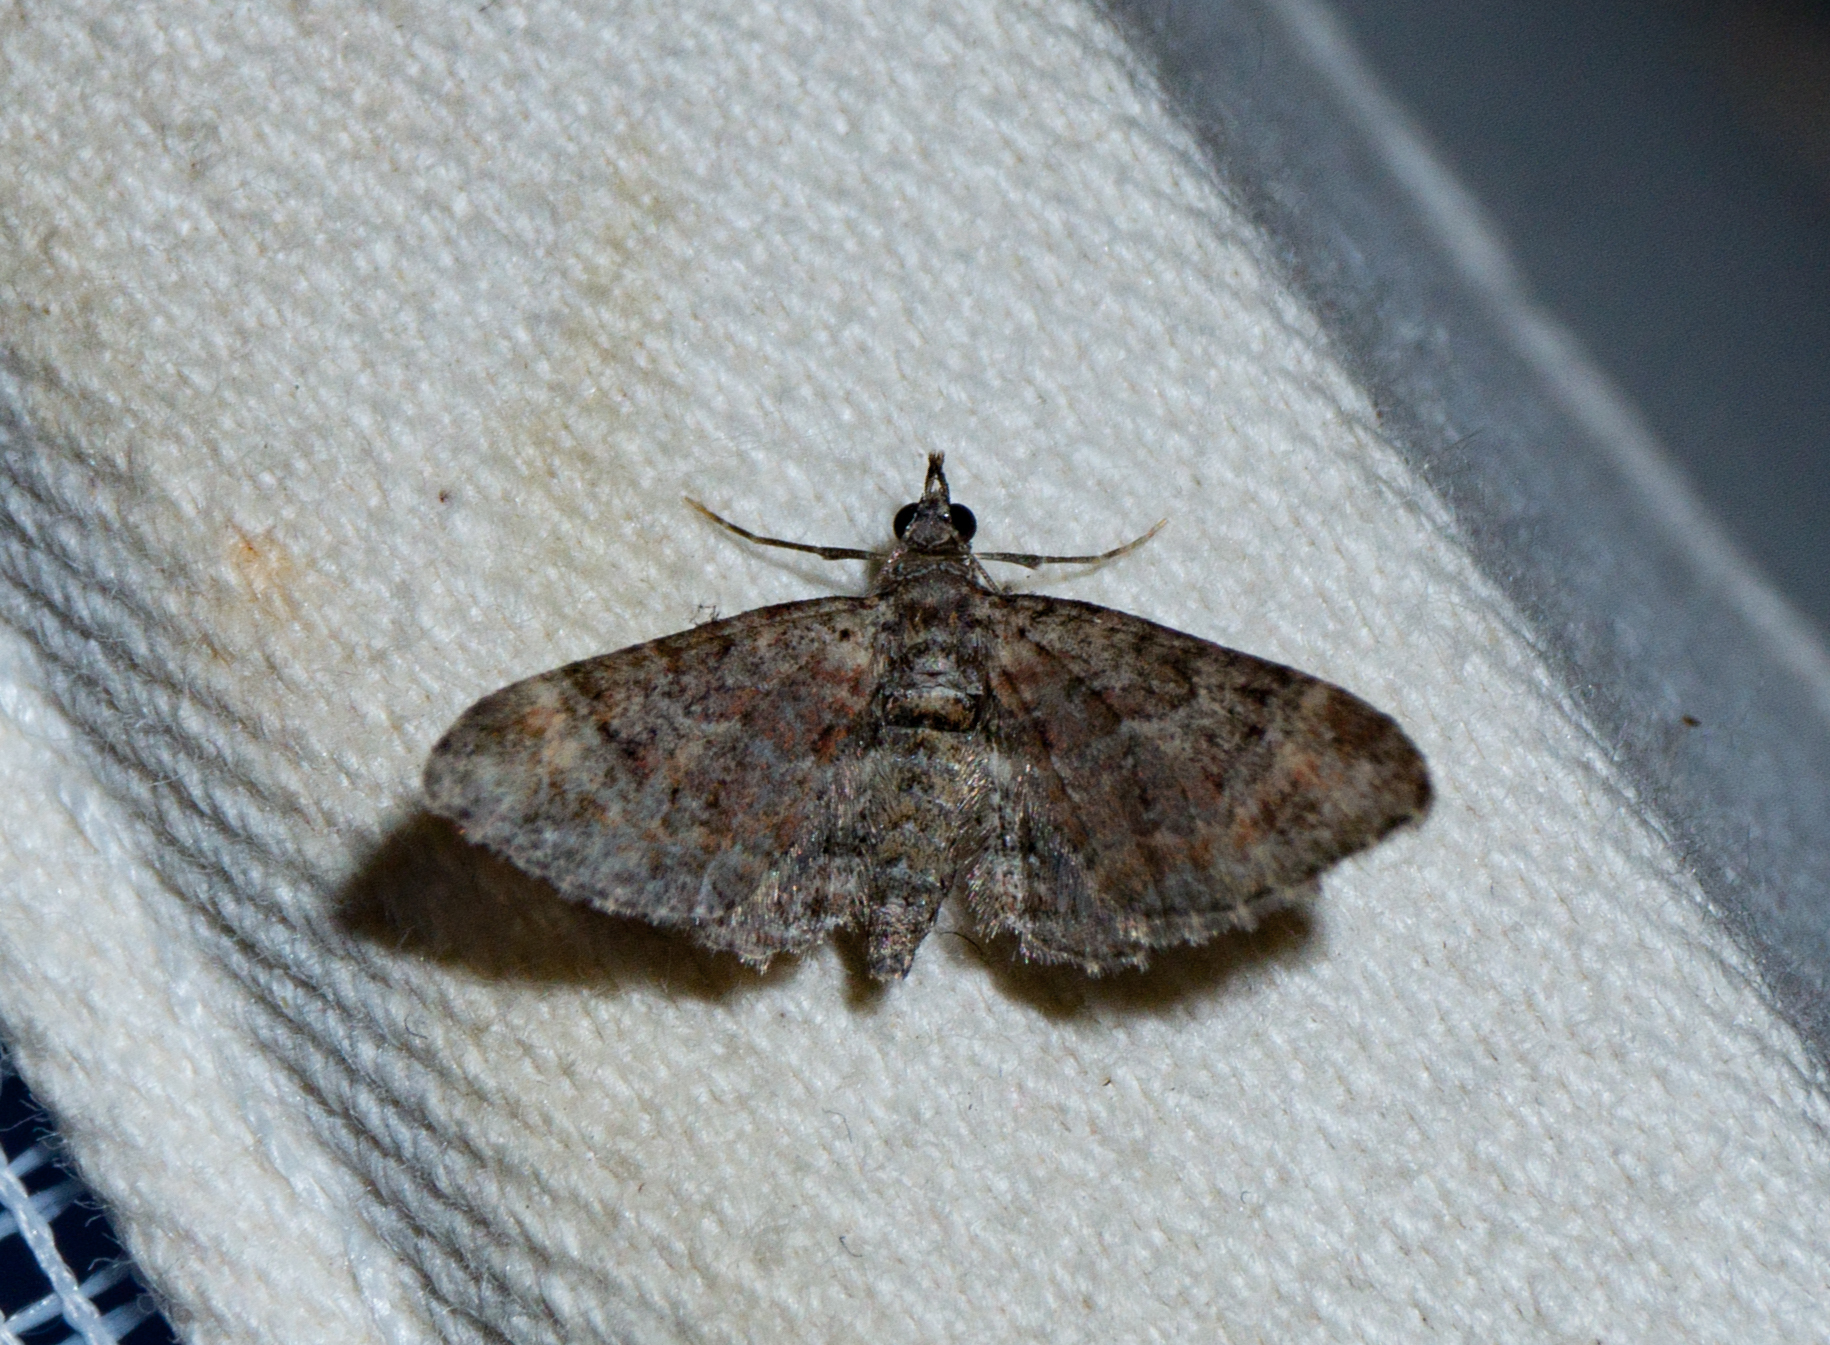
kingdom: Animalia
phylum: Arthropoda
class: Insecta
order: Lepidoptera
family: Geometridae
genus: Gymnoscelis
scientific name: Gymnoscelis rufifasciata
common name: Double-striped pug
